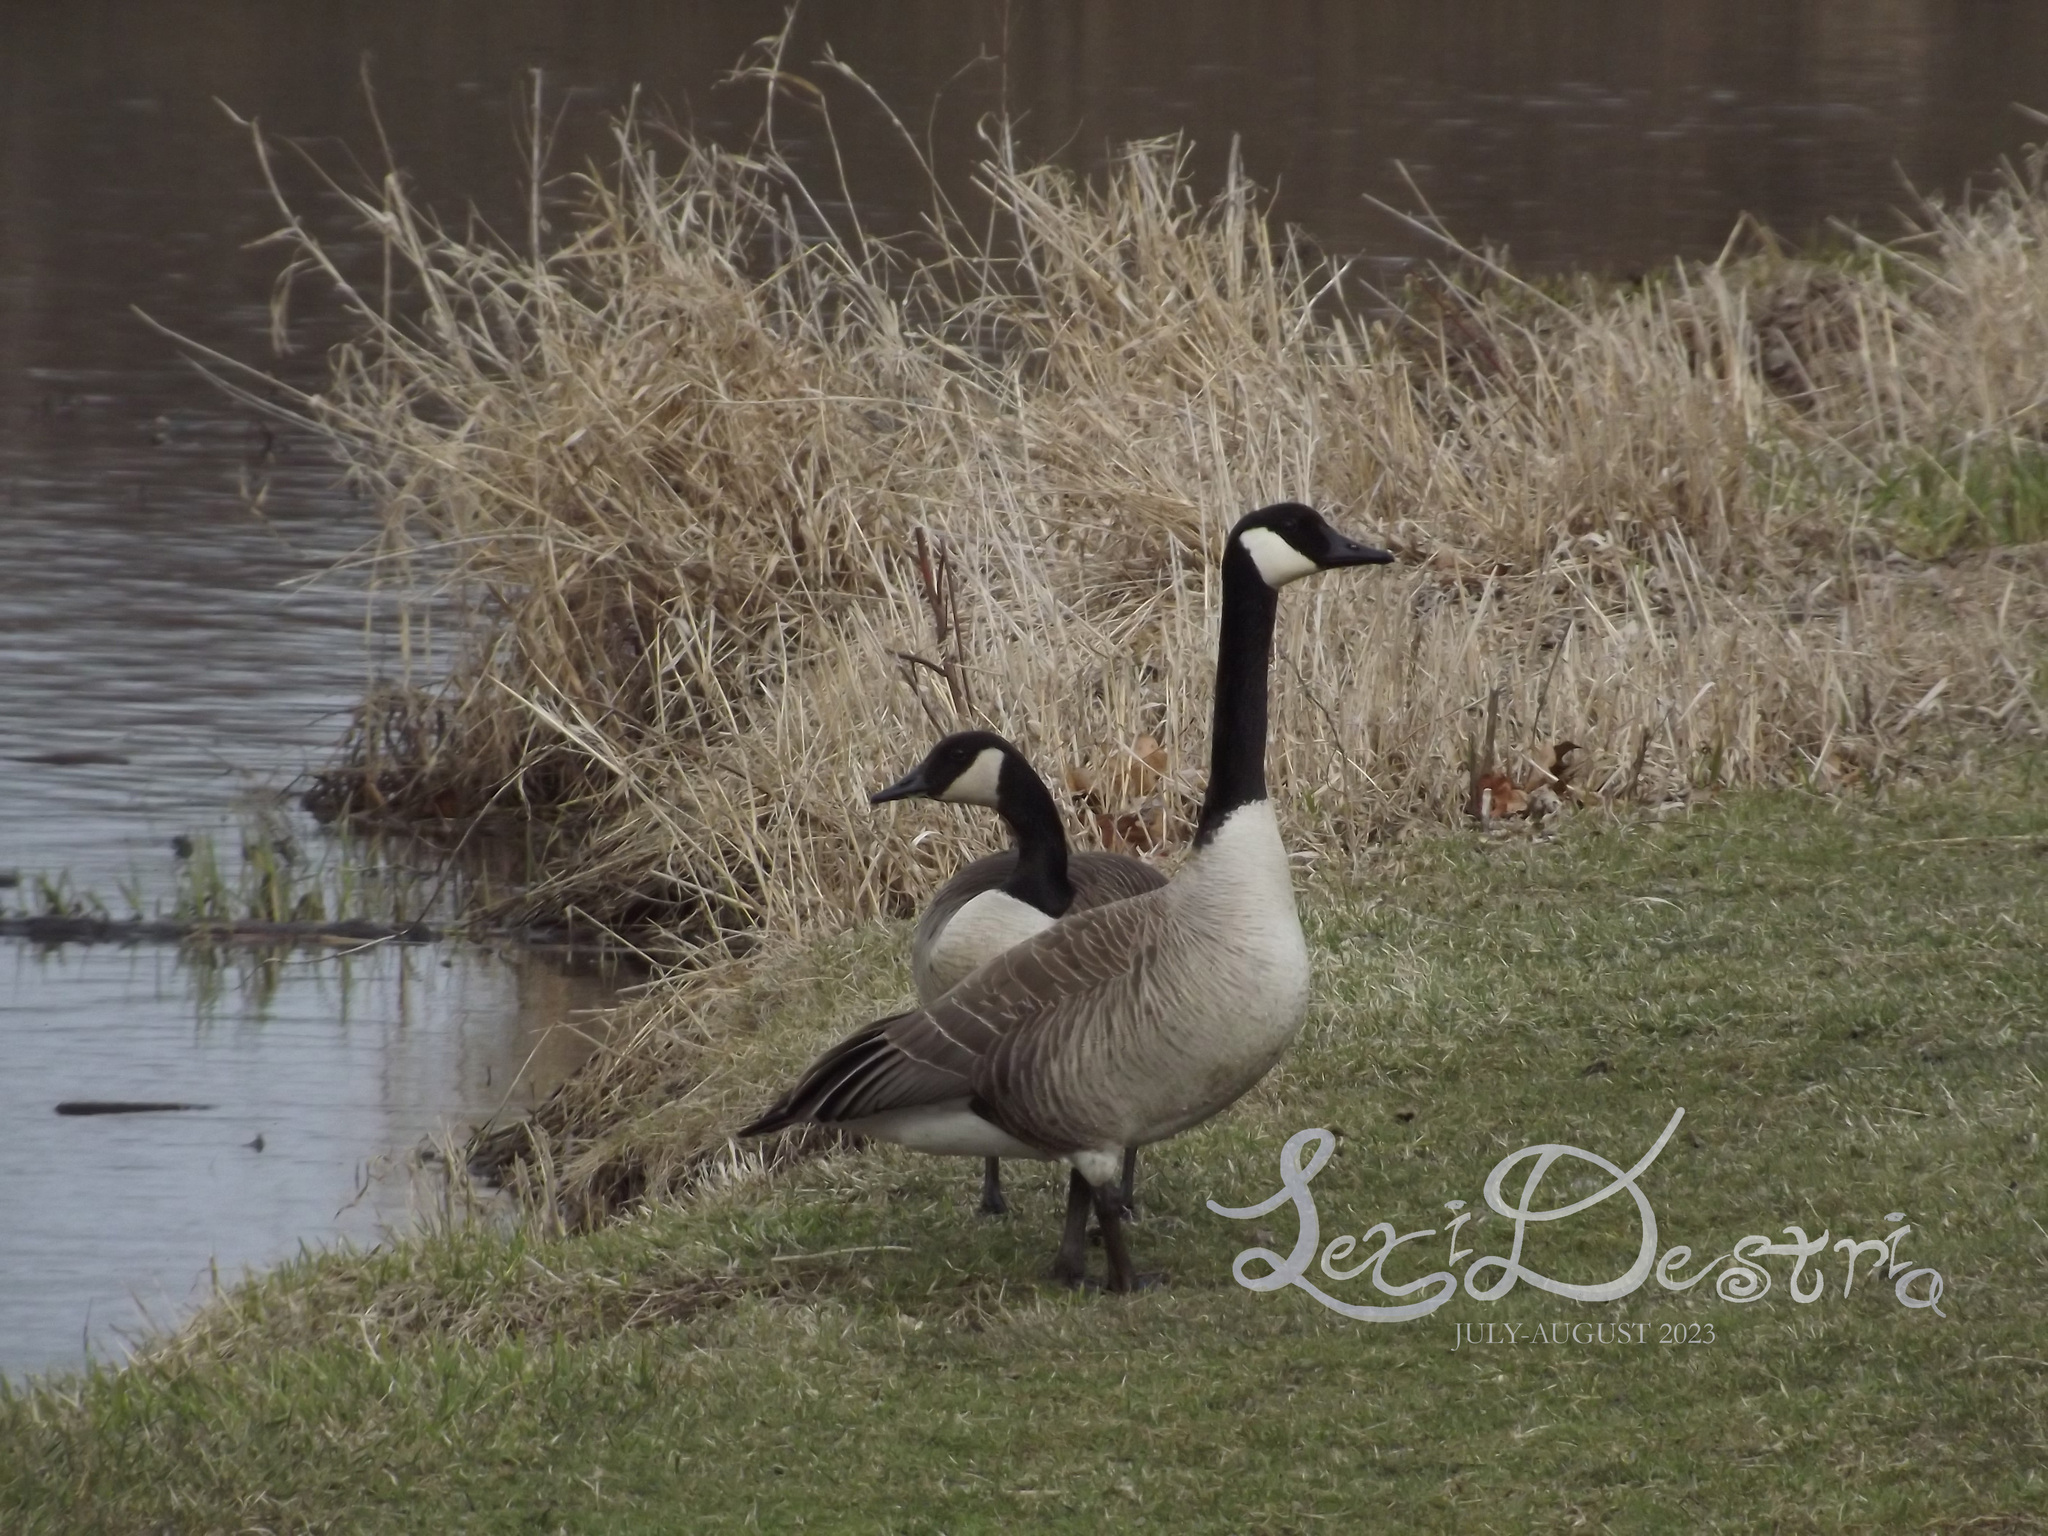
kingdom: Animalia
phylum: Chordata
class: Aves
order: Anseriformes
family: Anatidae
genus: Branta
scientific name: Branta canadensis
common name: Canada goose
